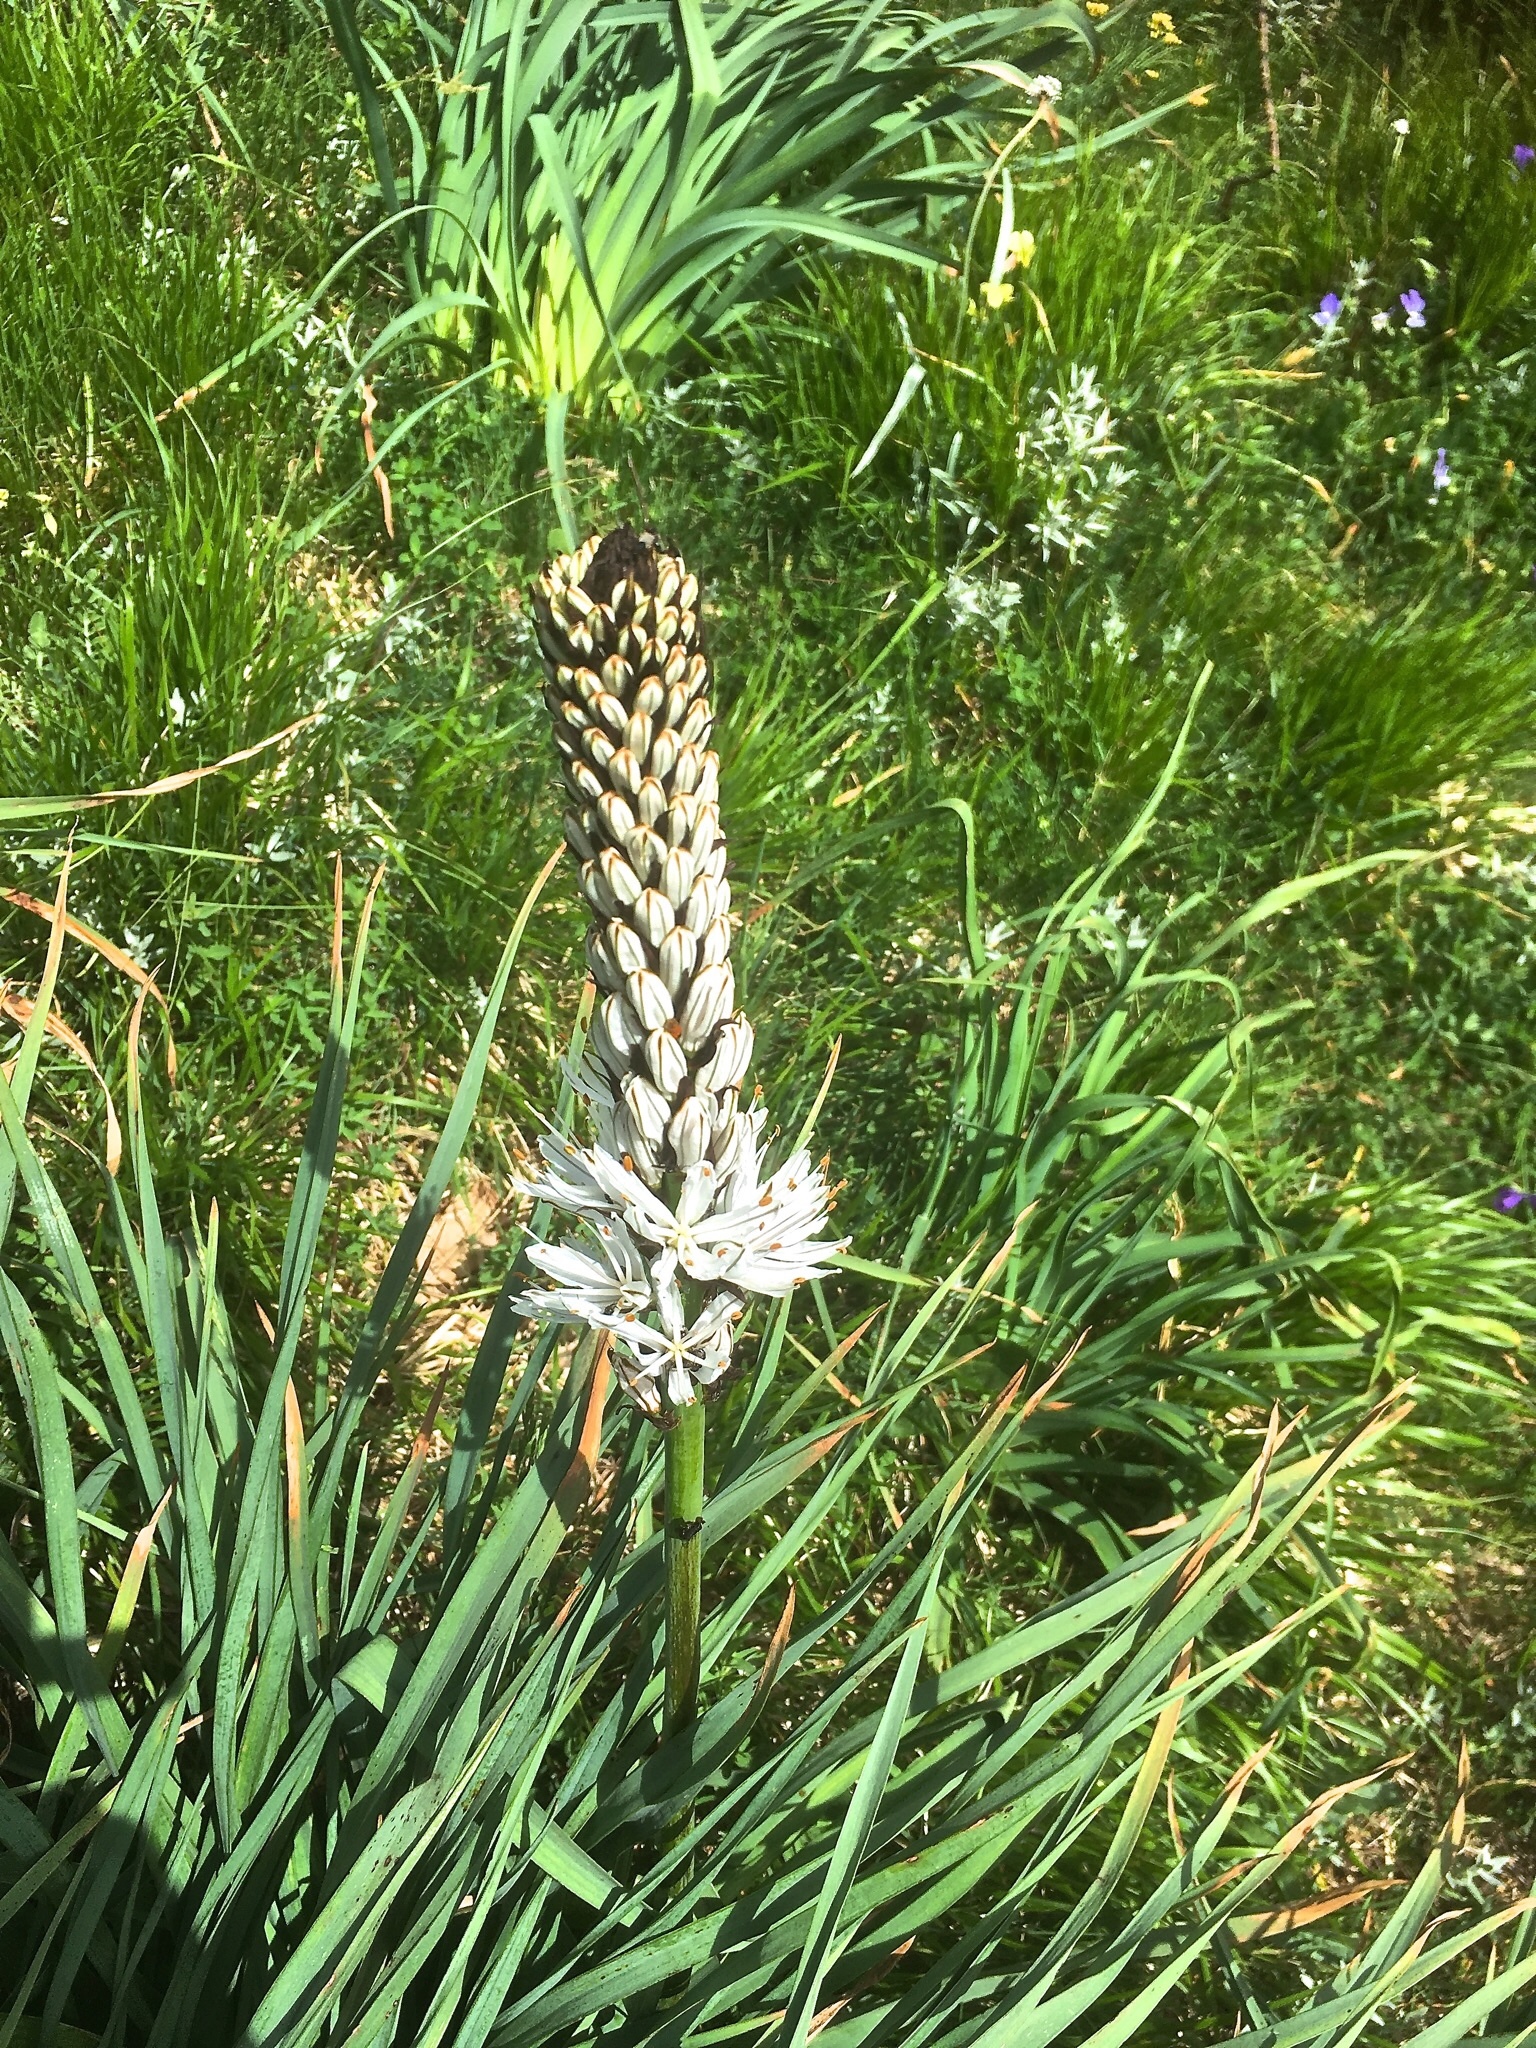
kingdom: Plantae
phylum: Tracheophyta
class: Liliopsida
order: Asparagales
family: Asphodelaceae
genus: Asphodelus
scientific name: Asphodelus albus
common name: White asphodel
